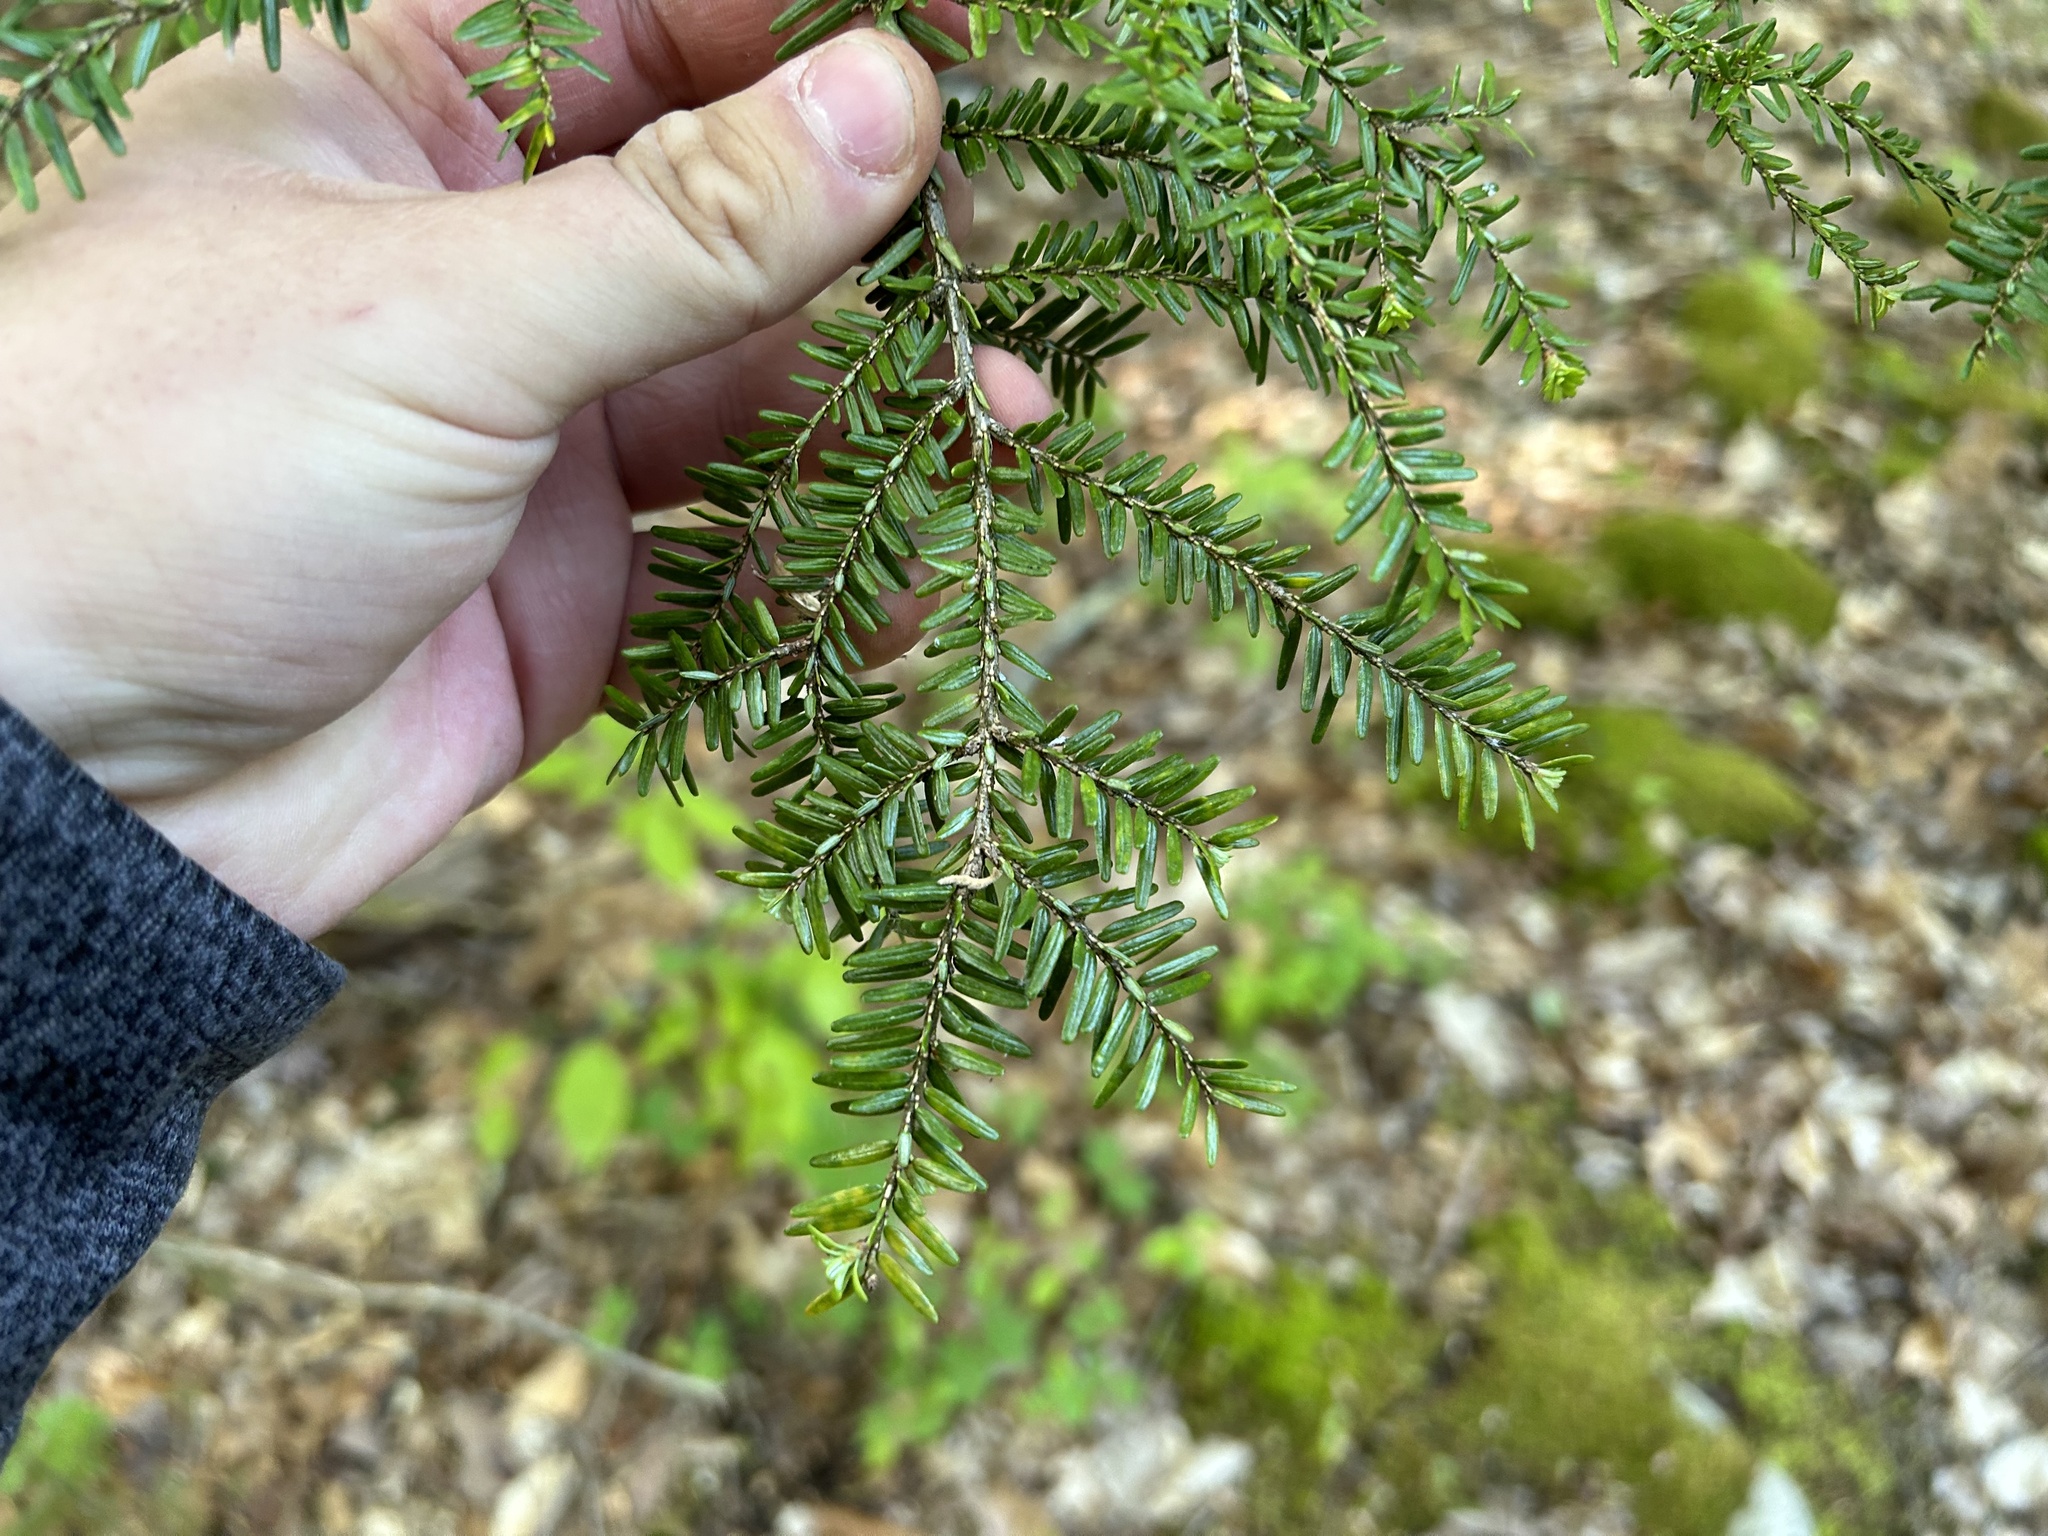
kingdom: Plantae
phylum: Tracheophyta
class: Pinopsida
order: Pinales
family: Pinaceae
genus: Tsuga
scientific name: Tsuga canadensis
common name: Eastern hemlock
